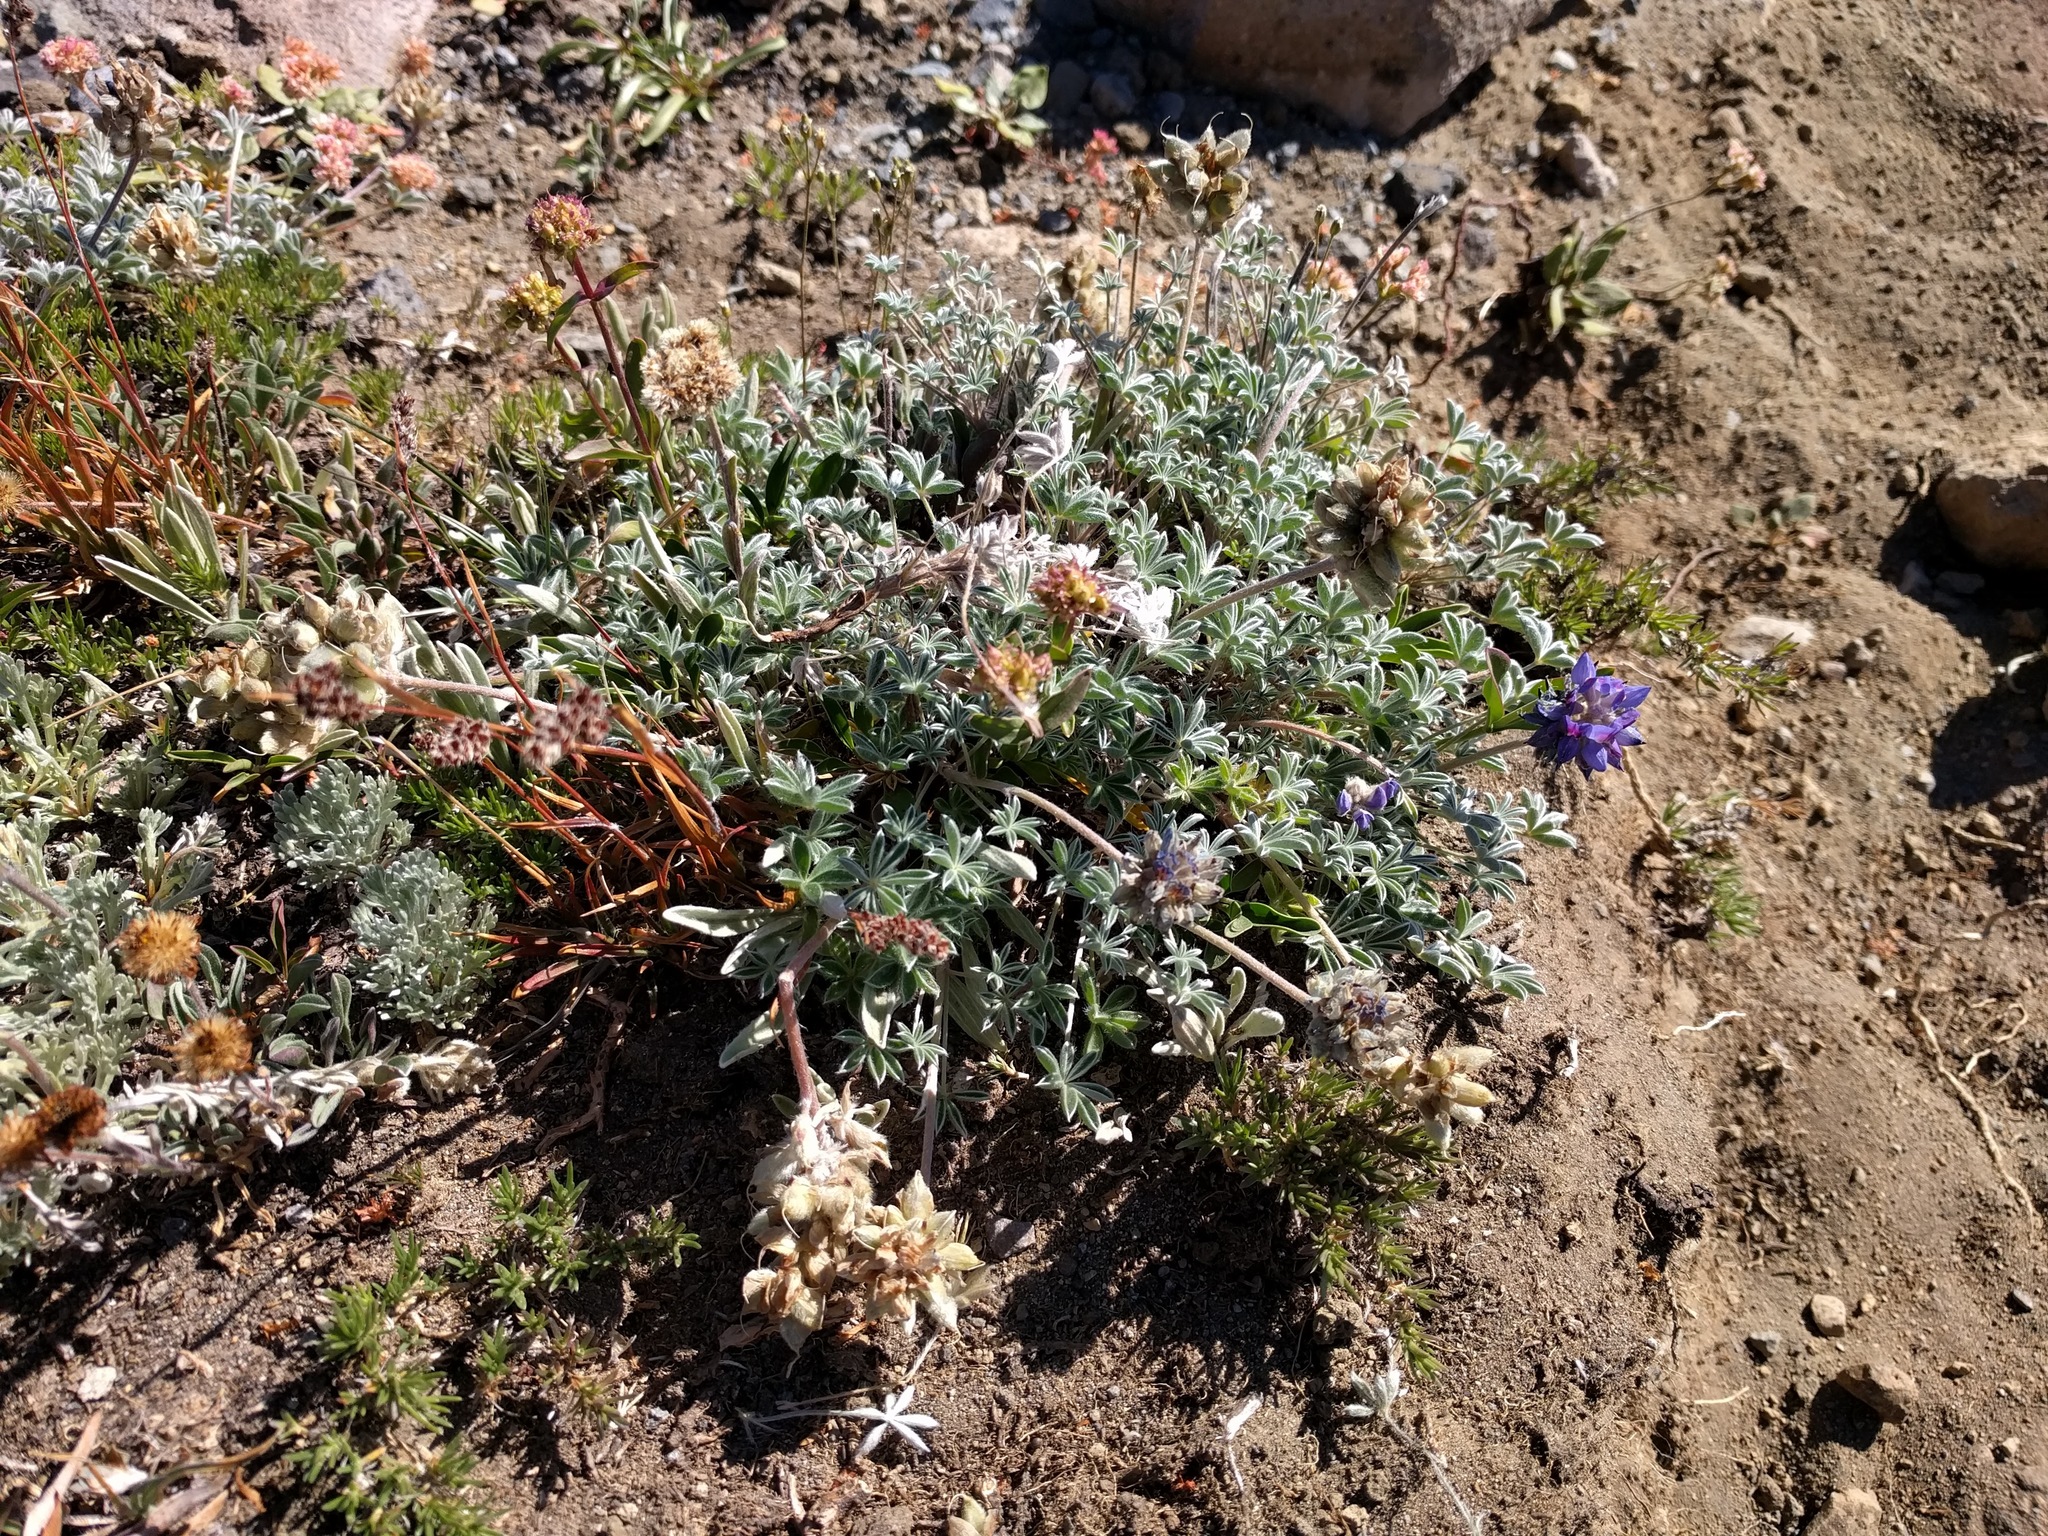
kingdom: Plantae
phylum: Tracheophyta
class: Magnoliopsida
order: Fabales
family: Fabaceae
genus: Lupinus
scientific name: Lupinus sellulus
